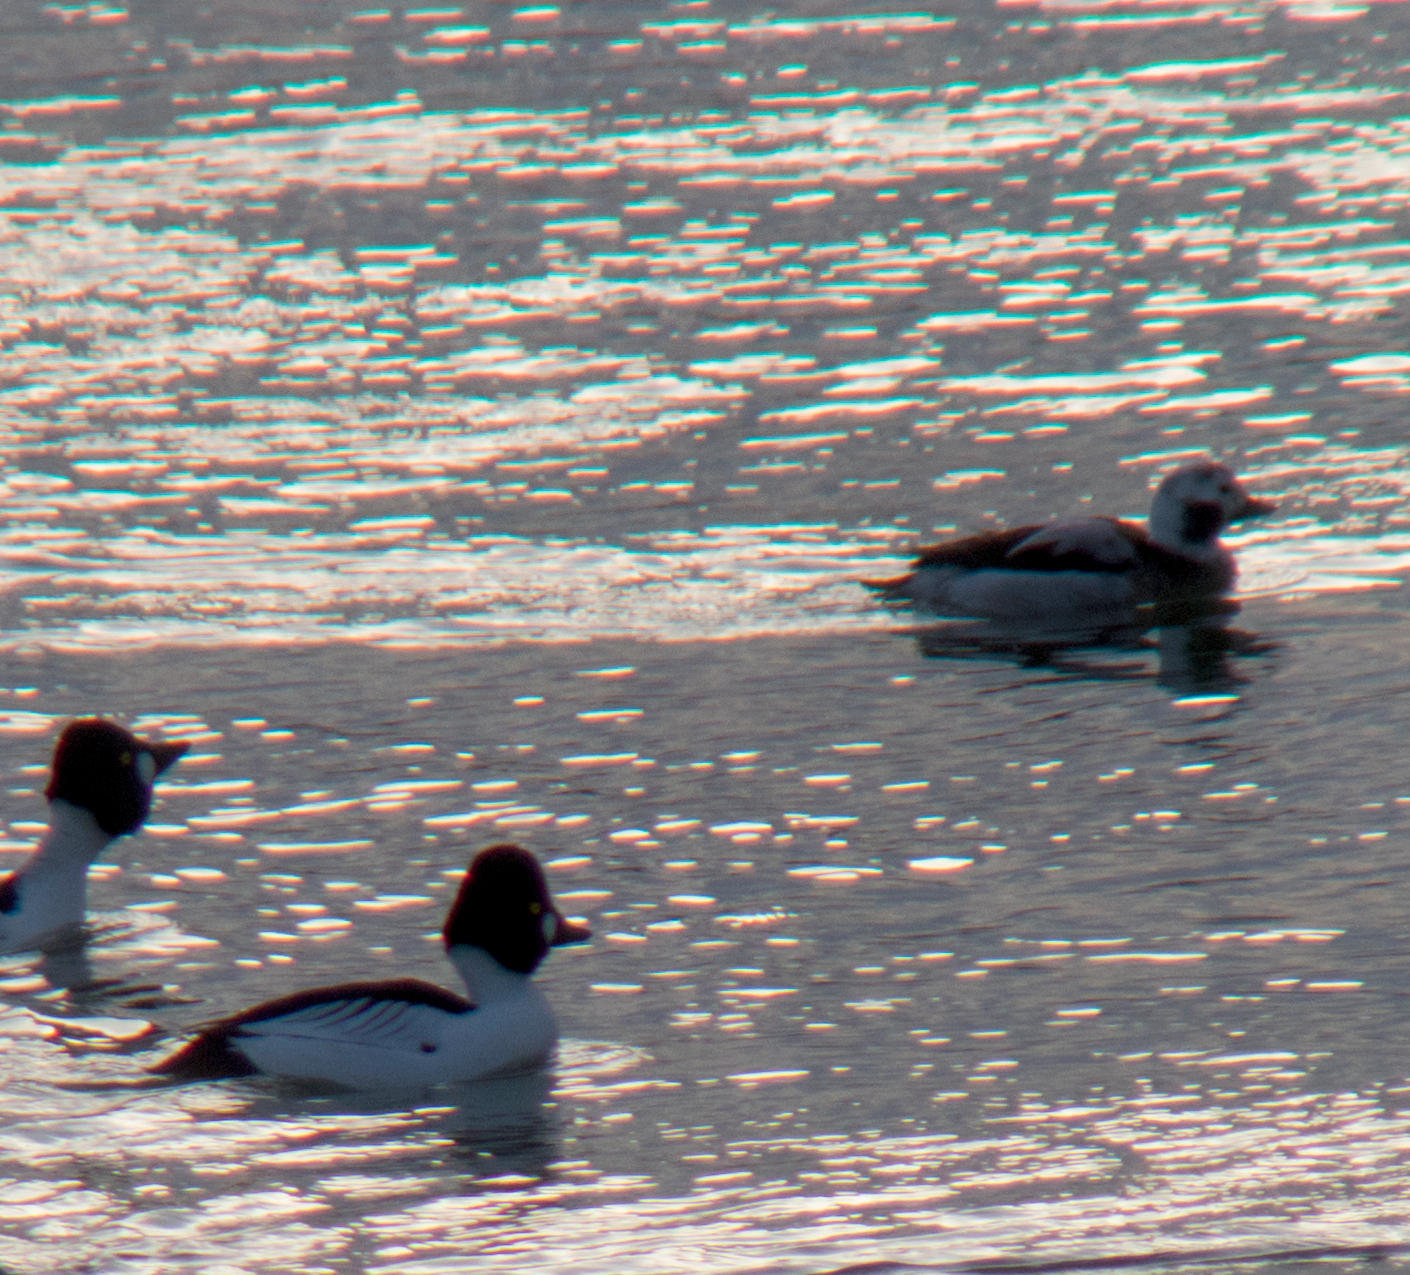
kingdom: Animalia
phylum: Chordata
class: Aves
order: Anseriformes
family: Anatidae
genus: Clangula
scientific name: Clangula hyemalis
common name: Long-tailed duck
